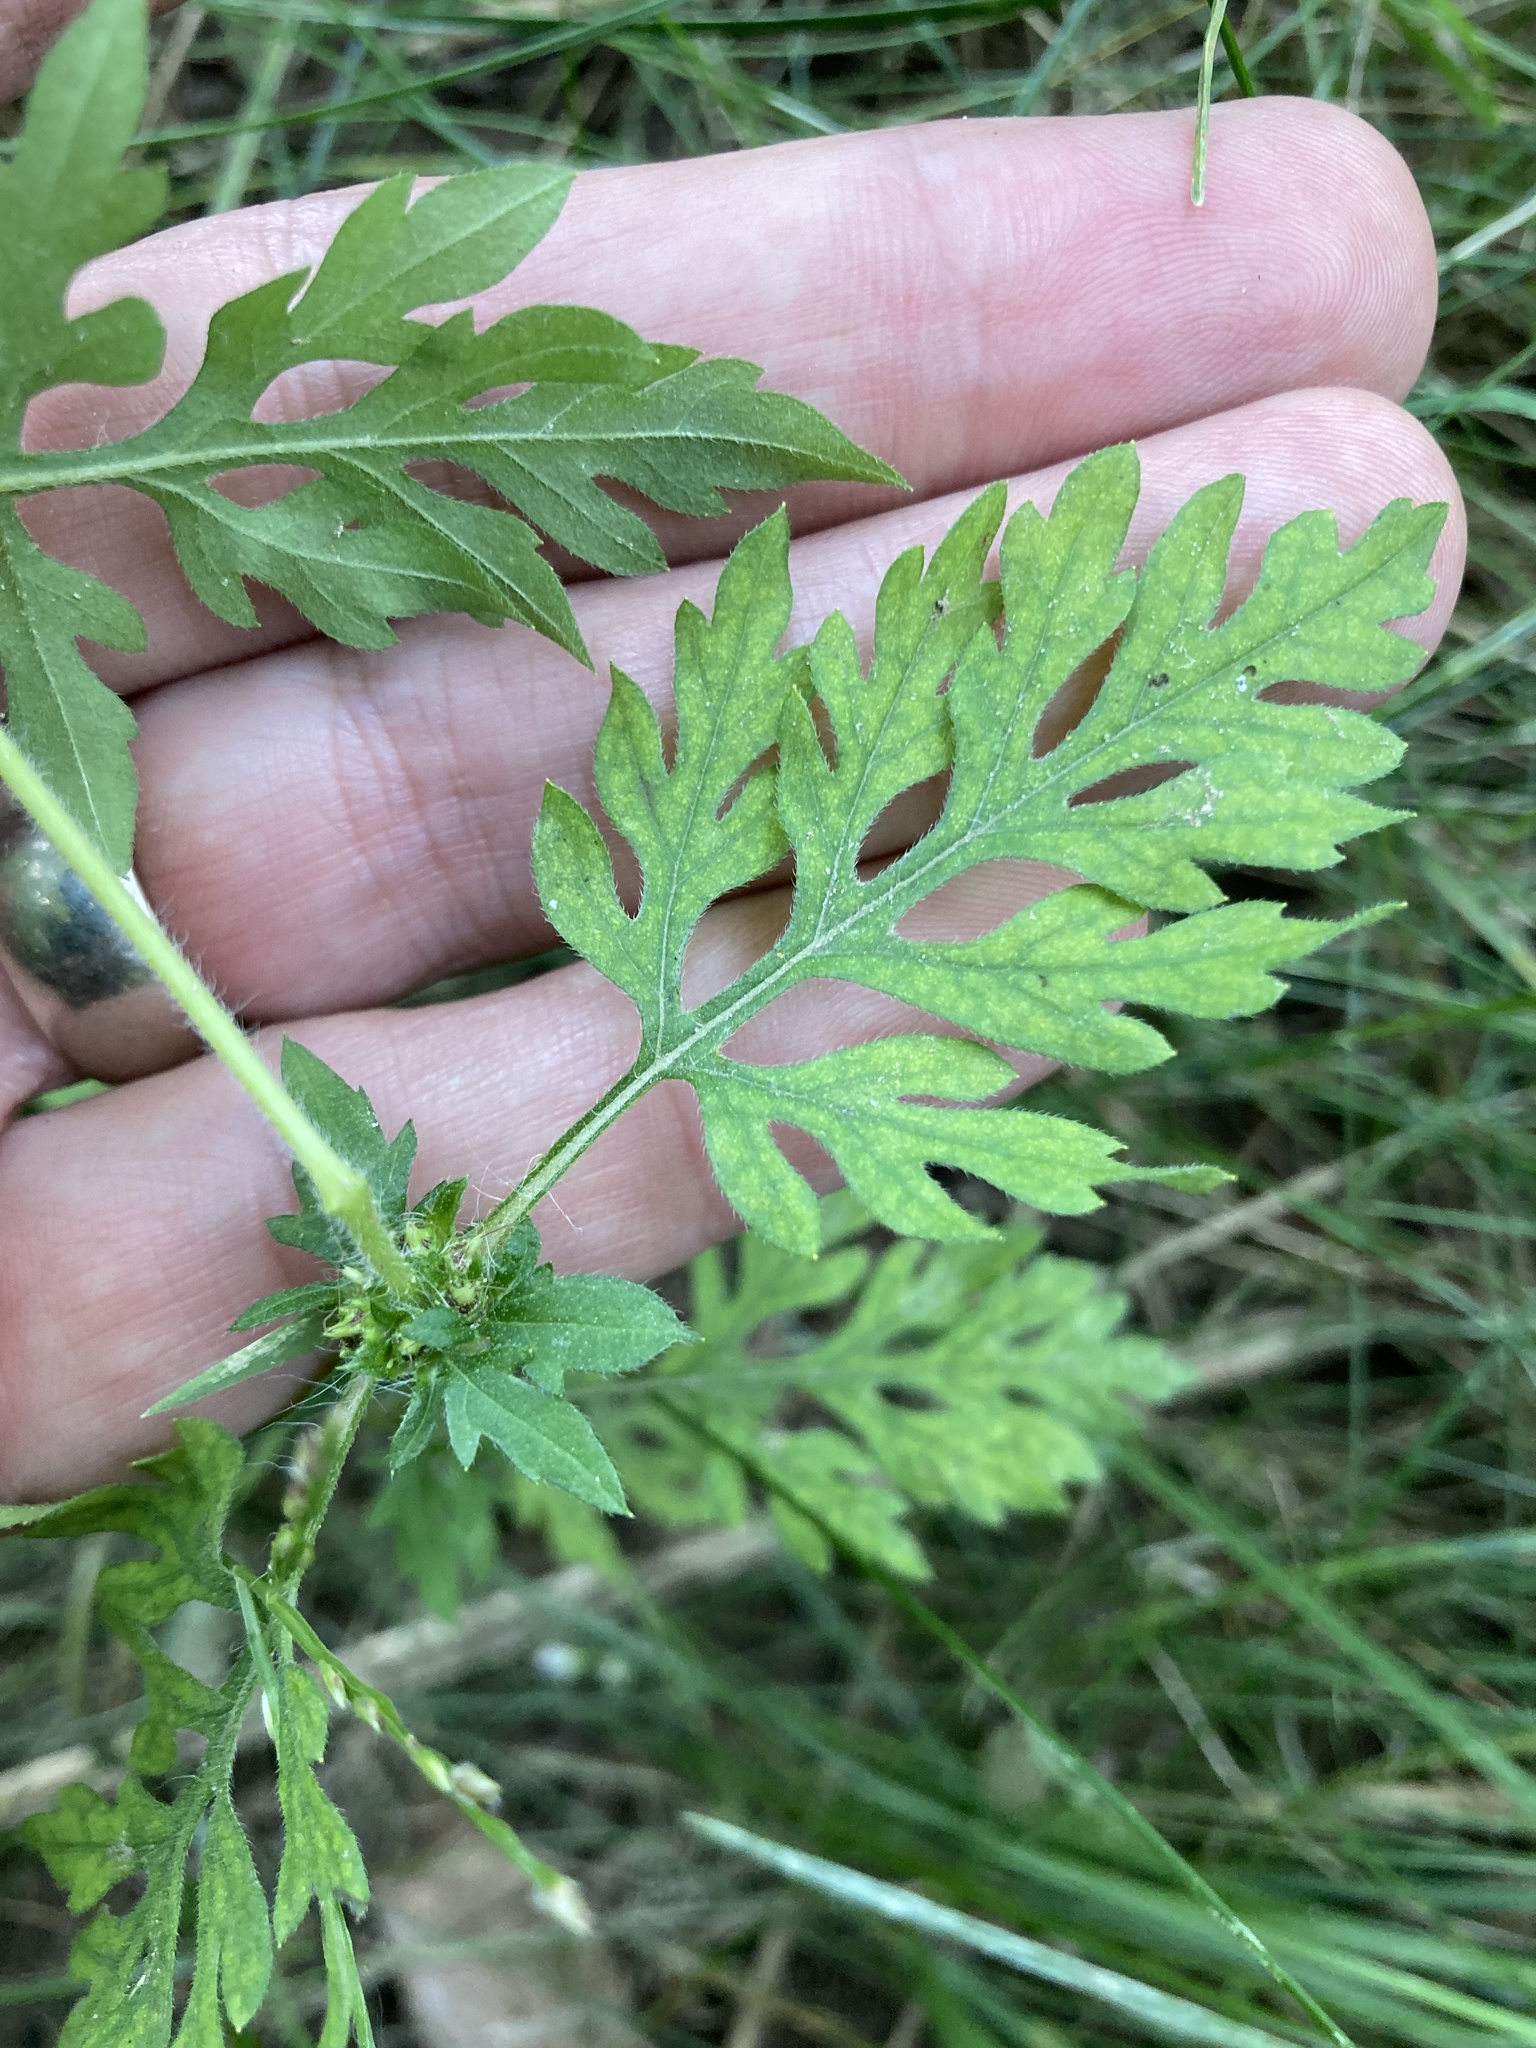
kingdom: Plantae
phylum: Tracheophyta
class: Magnoliopsida
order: Asterales
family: Asteraceae
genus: Ambrosia
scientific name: Ambrosia artemisiifolia
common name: Annual ragweed
